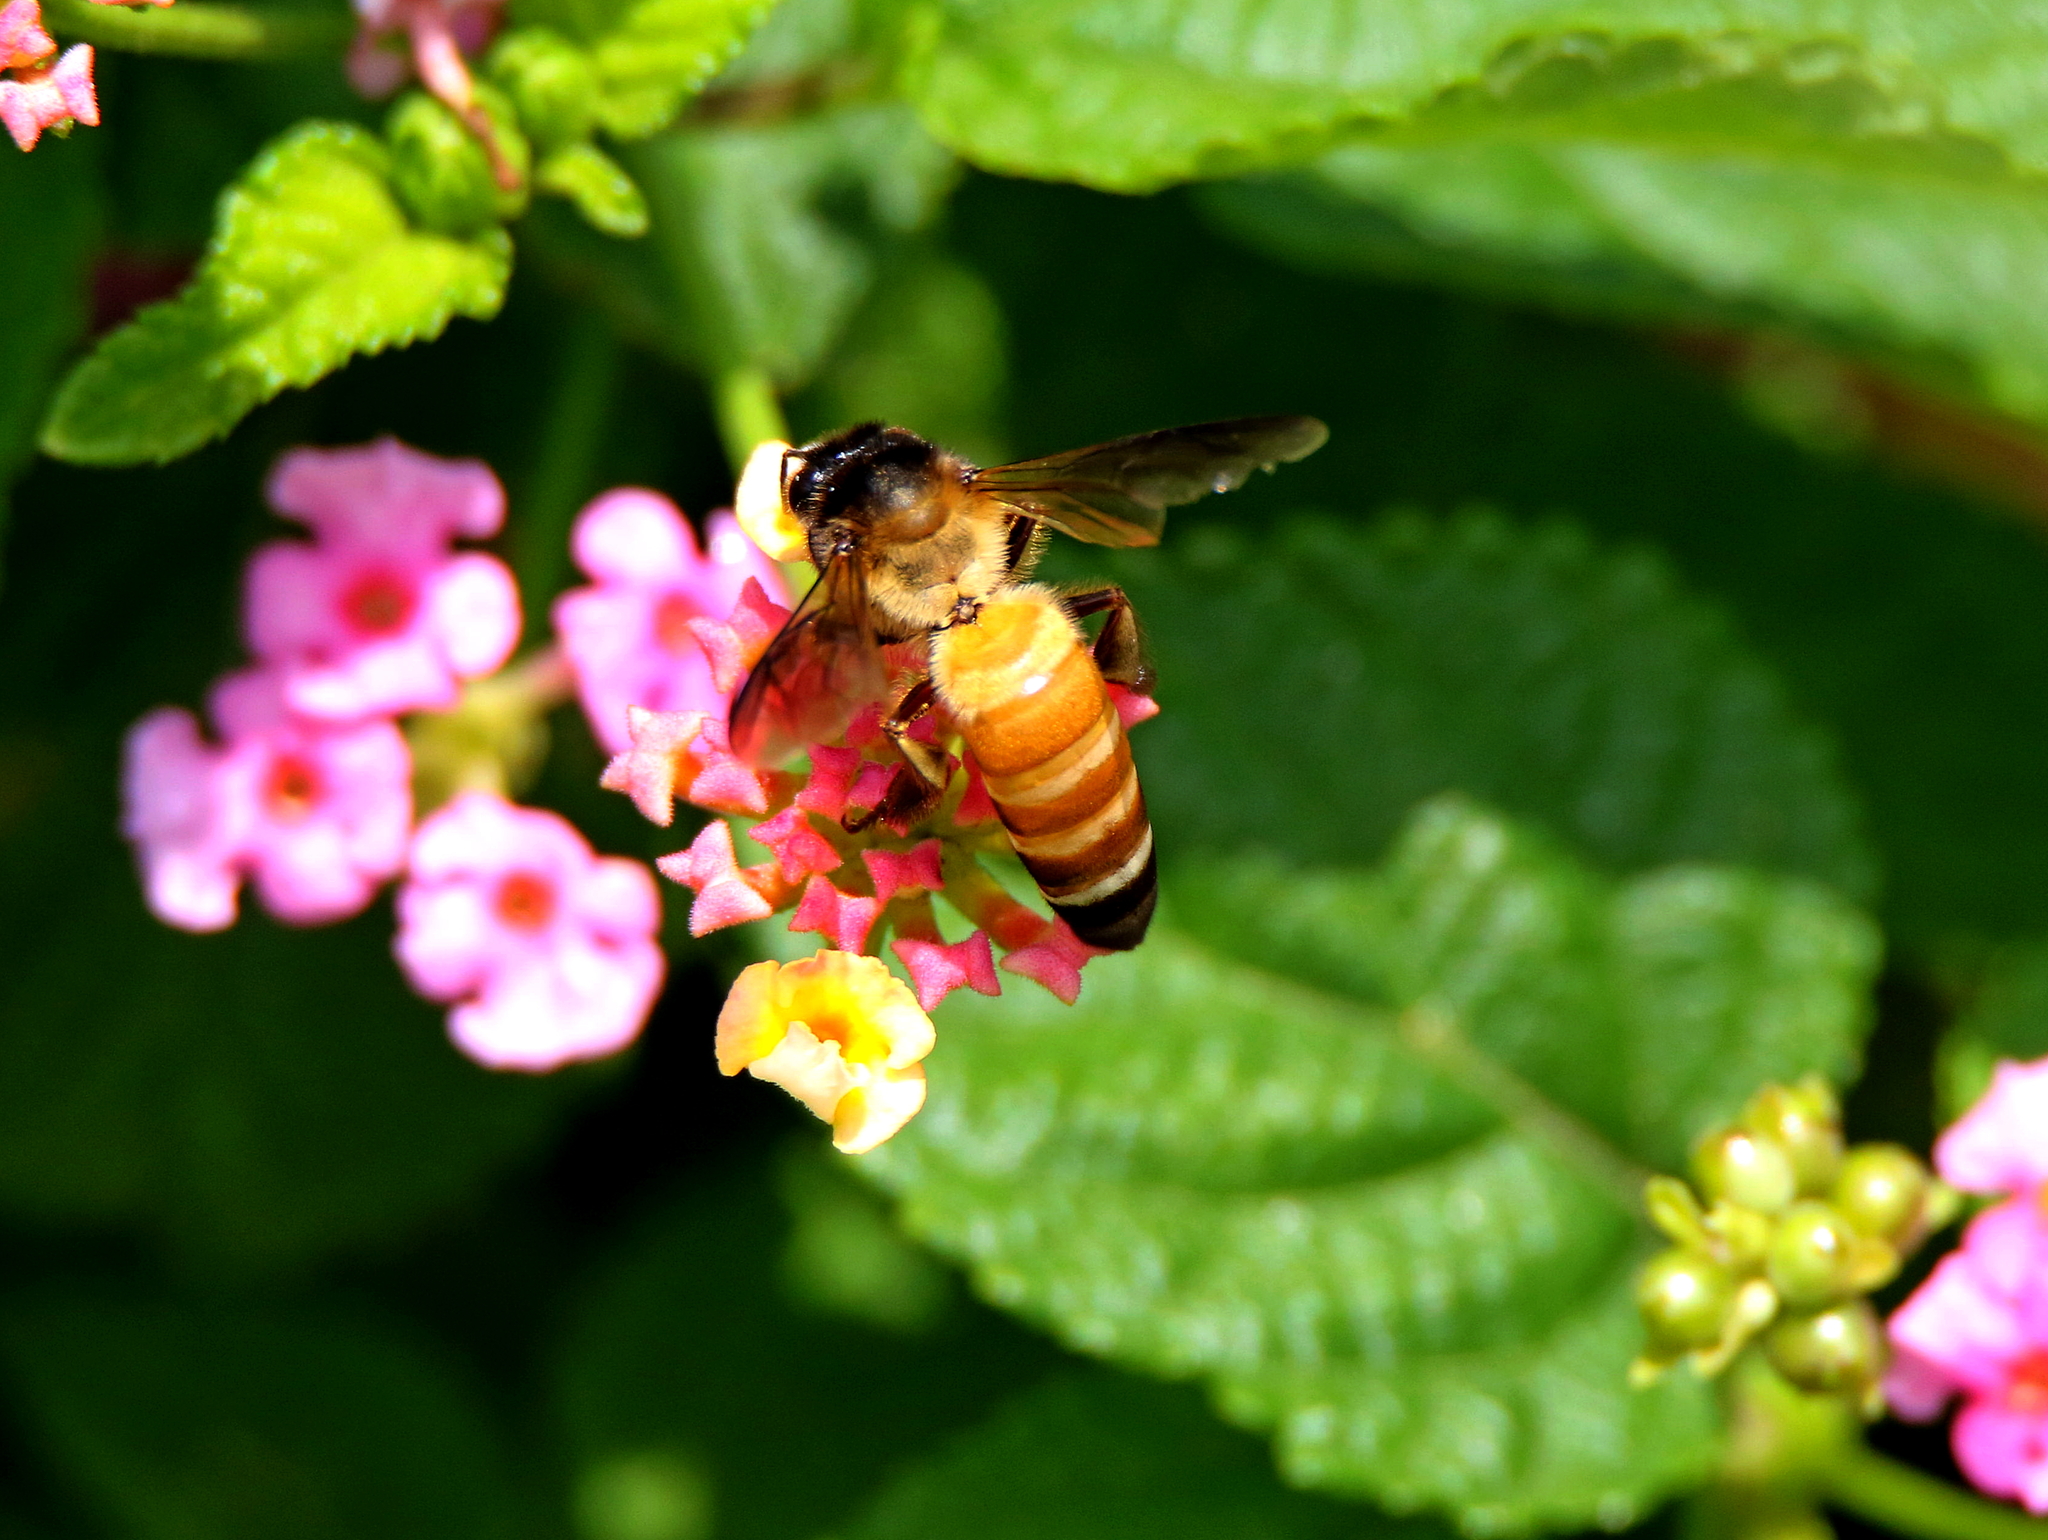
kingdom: Animalia
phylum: Arthropoda
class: Insecta
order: Hymenoptera
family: Apidae
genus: Apis
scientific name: Apis dorsata
